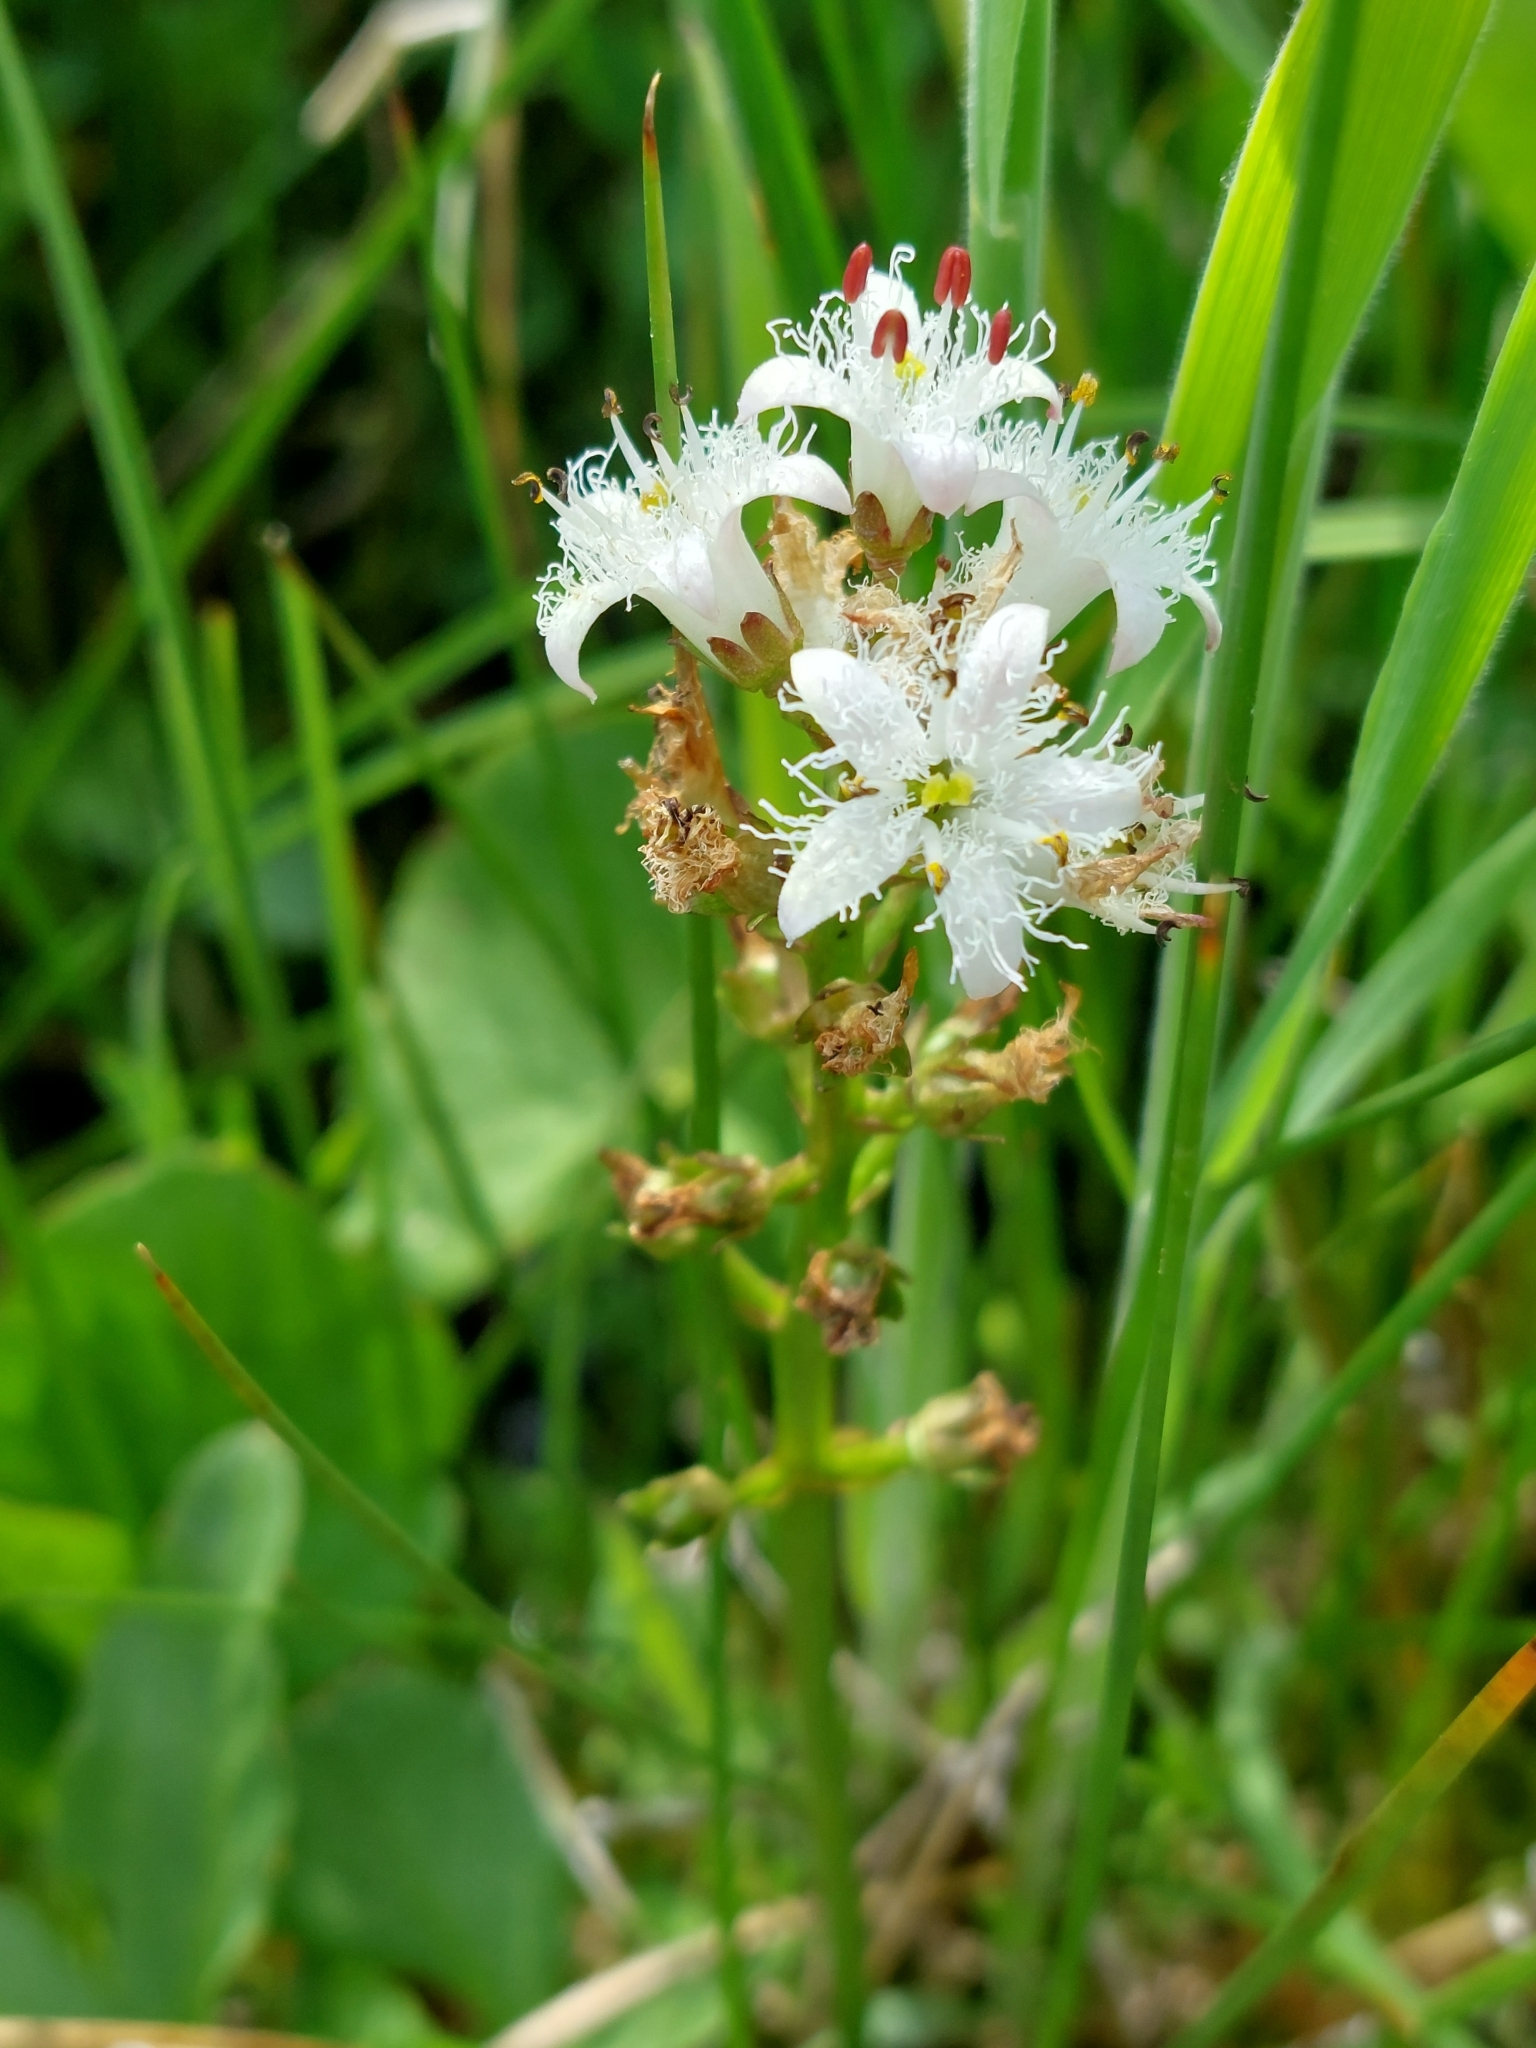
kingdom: Plantae
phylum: Tracheophyta
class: Magnoliopsida
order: Asterales
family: Menyanthaceae
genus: Menyanthes
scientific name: Menyanthes trifoliata
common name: Bogbean
